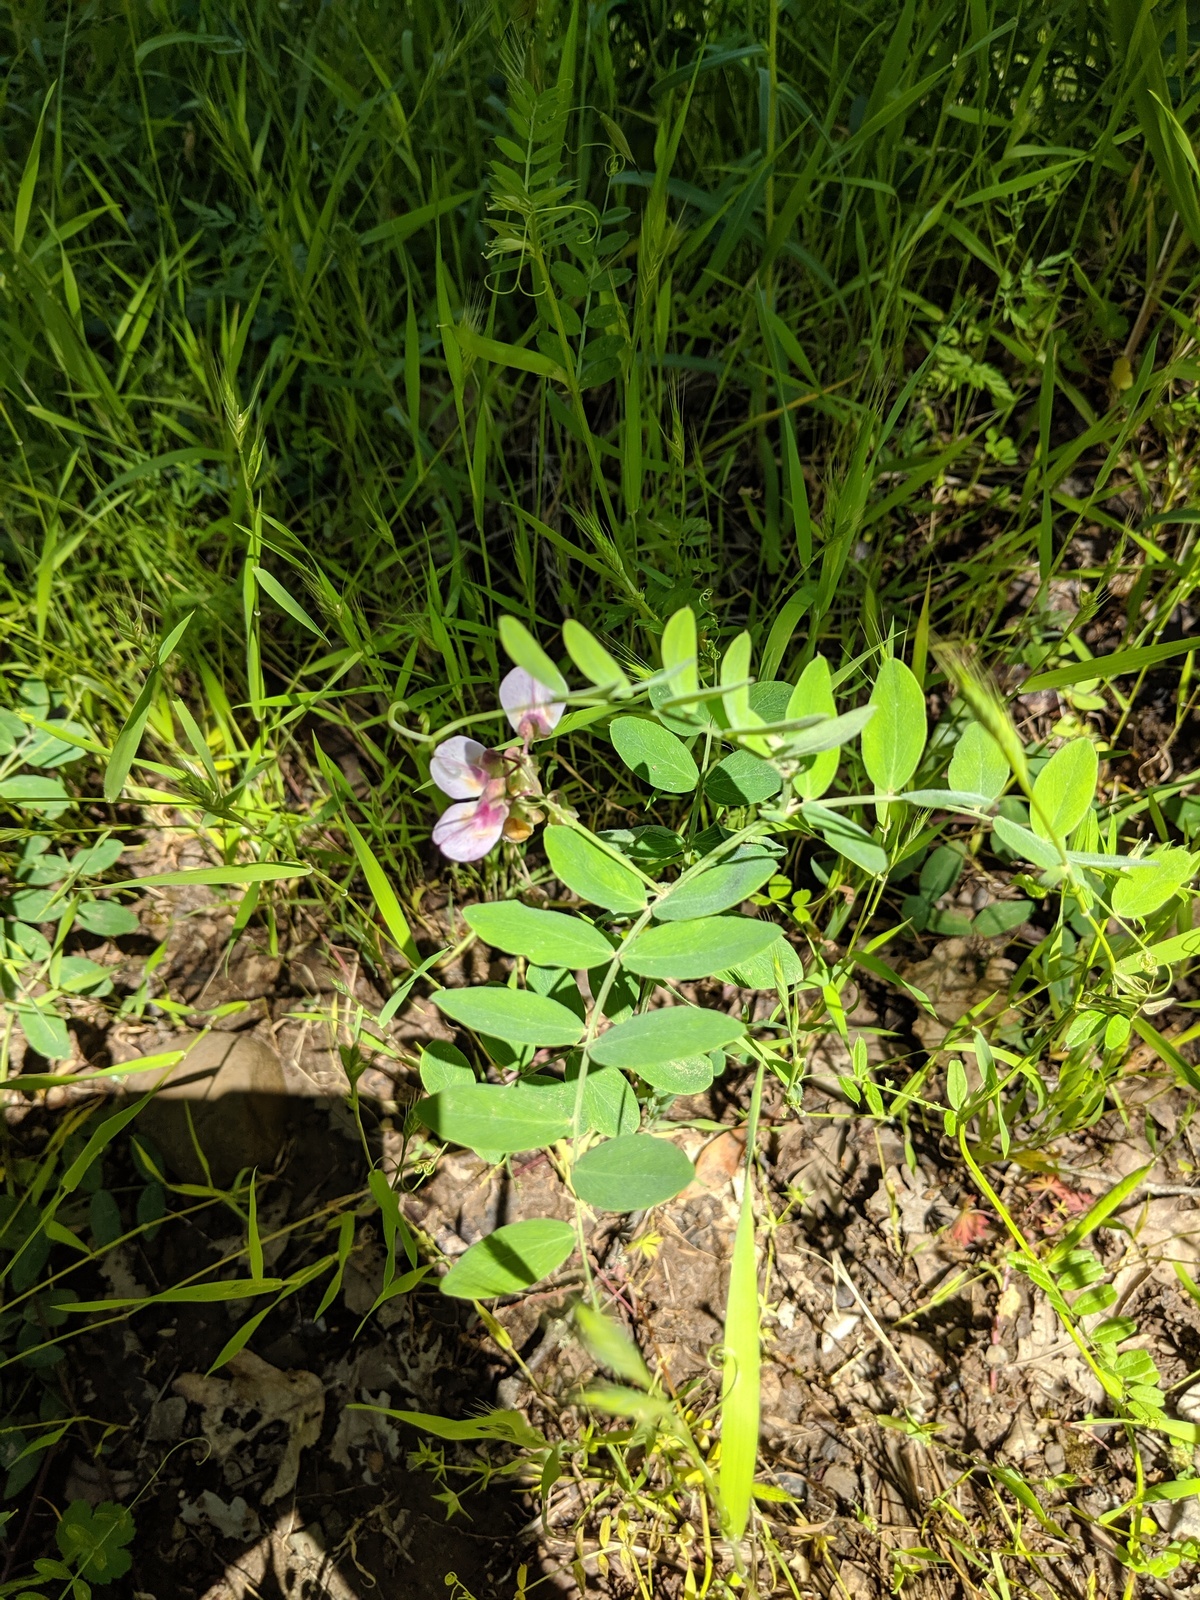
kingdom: Plantae
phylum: Tracheophyta
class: Magnoliopsida
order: Fabales
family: Fabaceae
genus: Lathyrus
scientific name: Lathyrus vestitus
